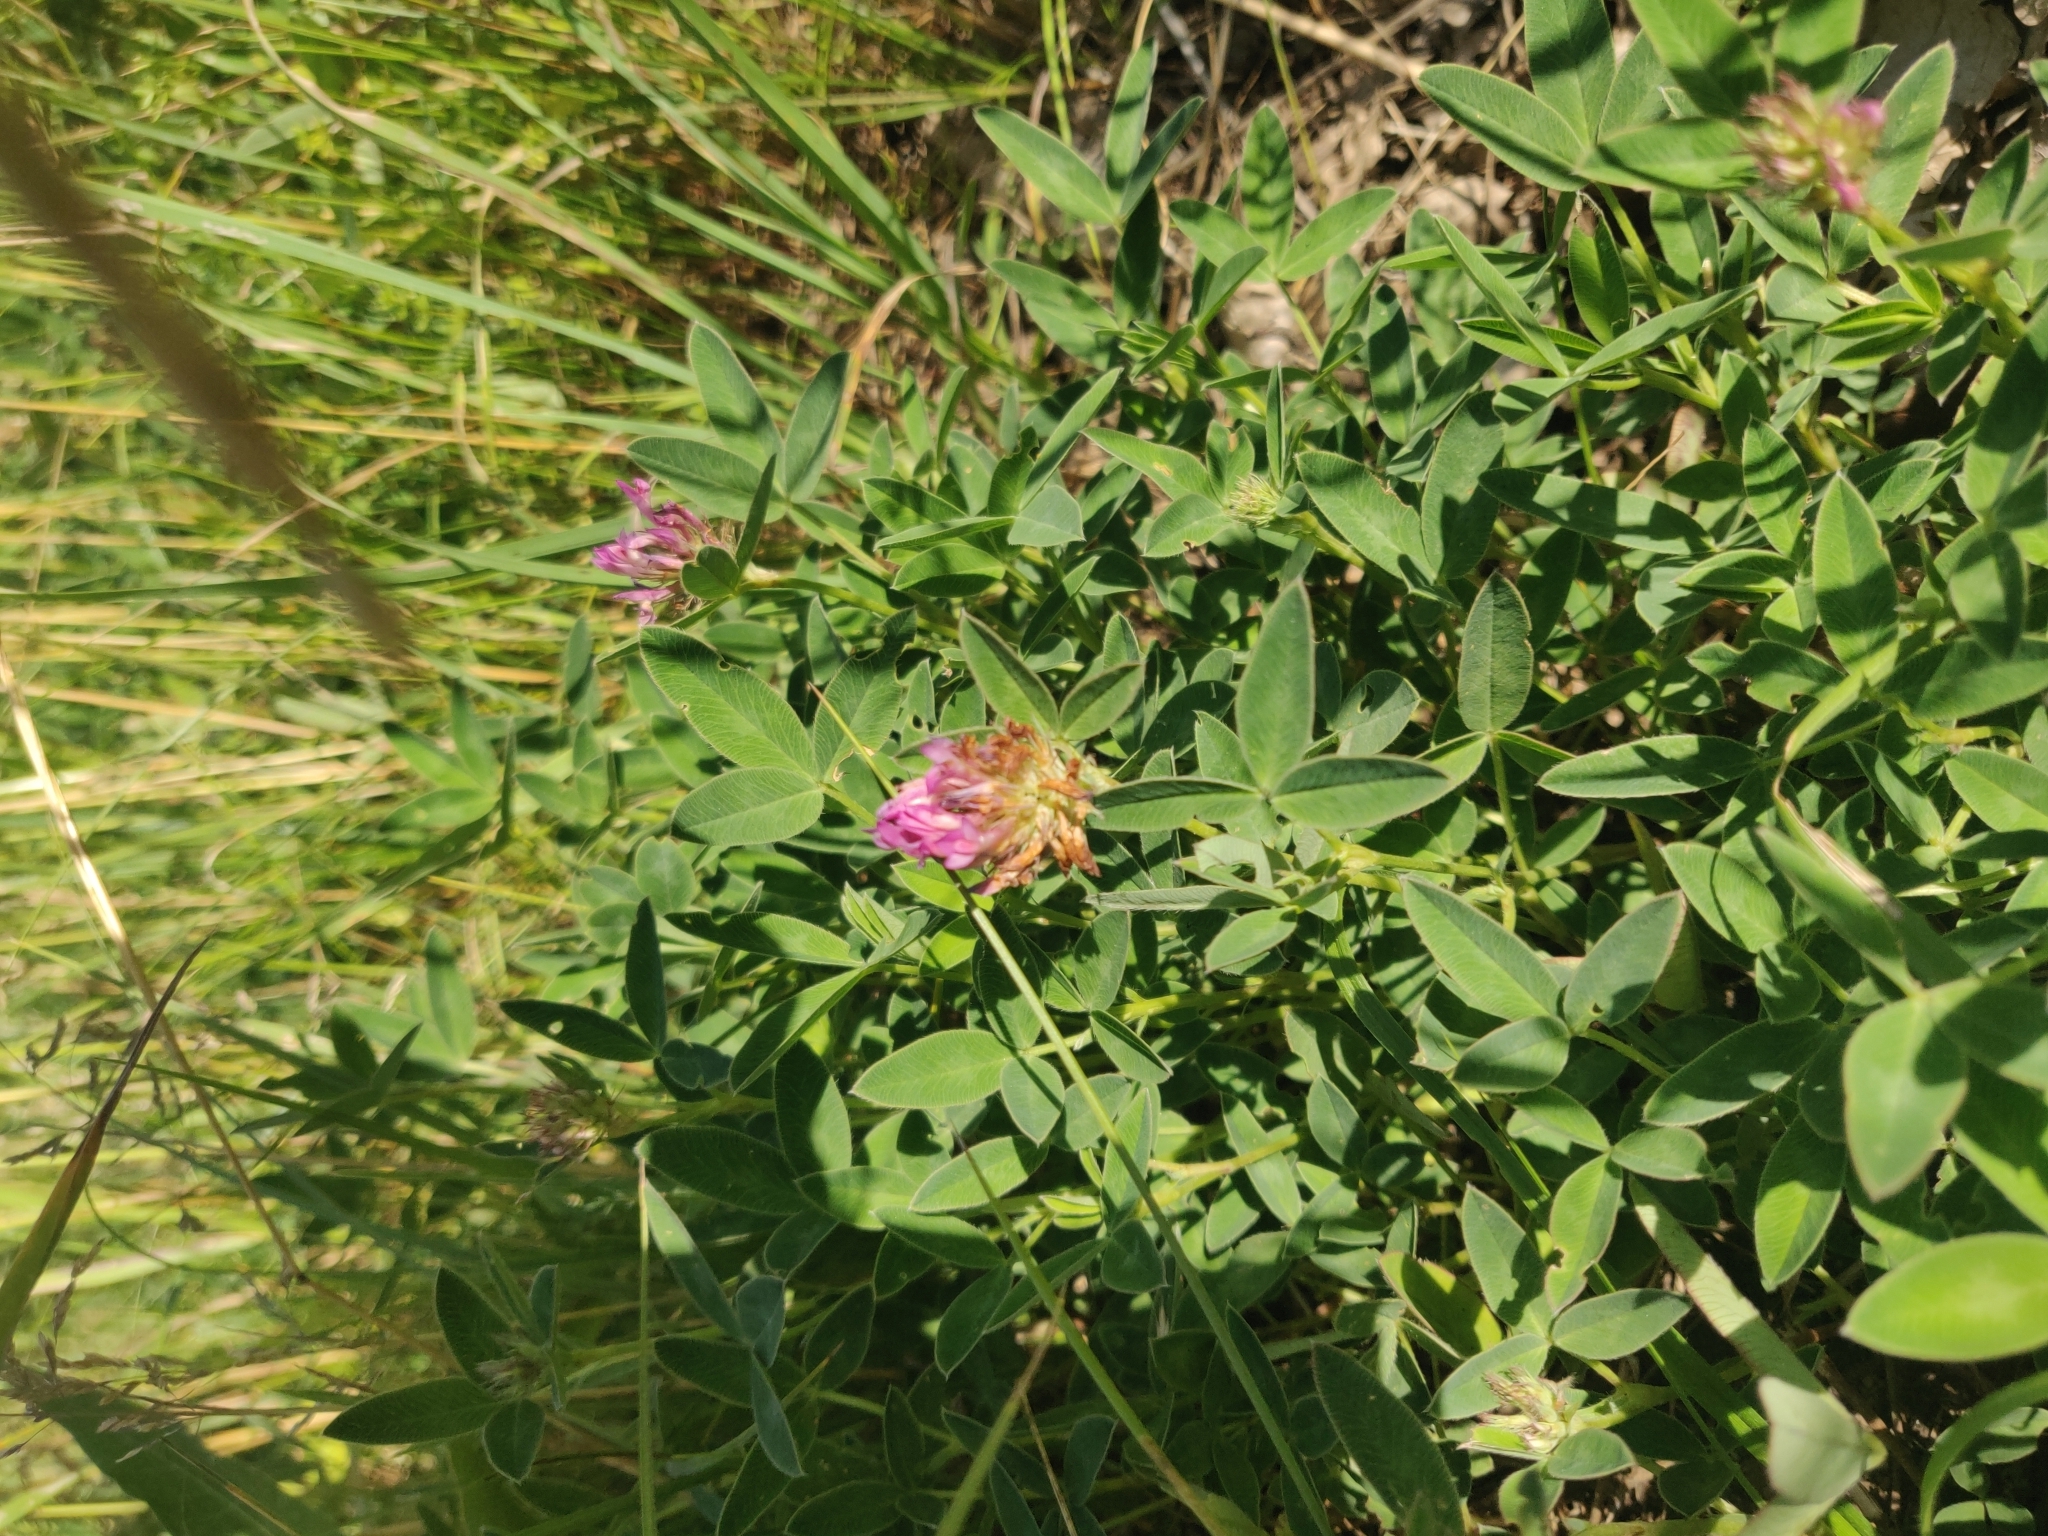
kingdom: Plantae
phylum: Tracheophyta
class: Magnoliopsida
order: Fabales
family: Fabaceae
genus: Trifolium
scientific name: Trifolium medium
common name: Zigzag clover
